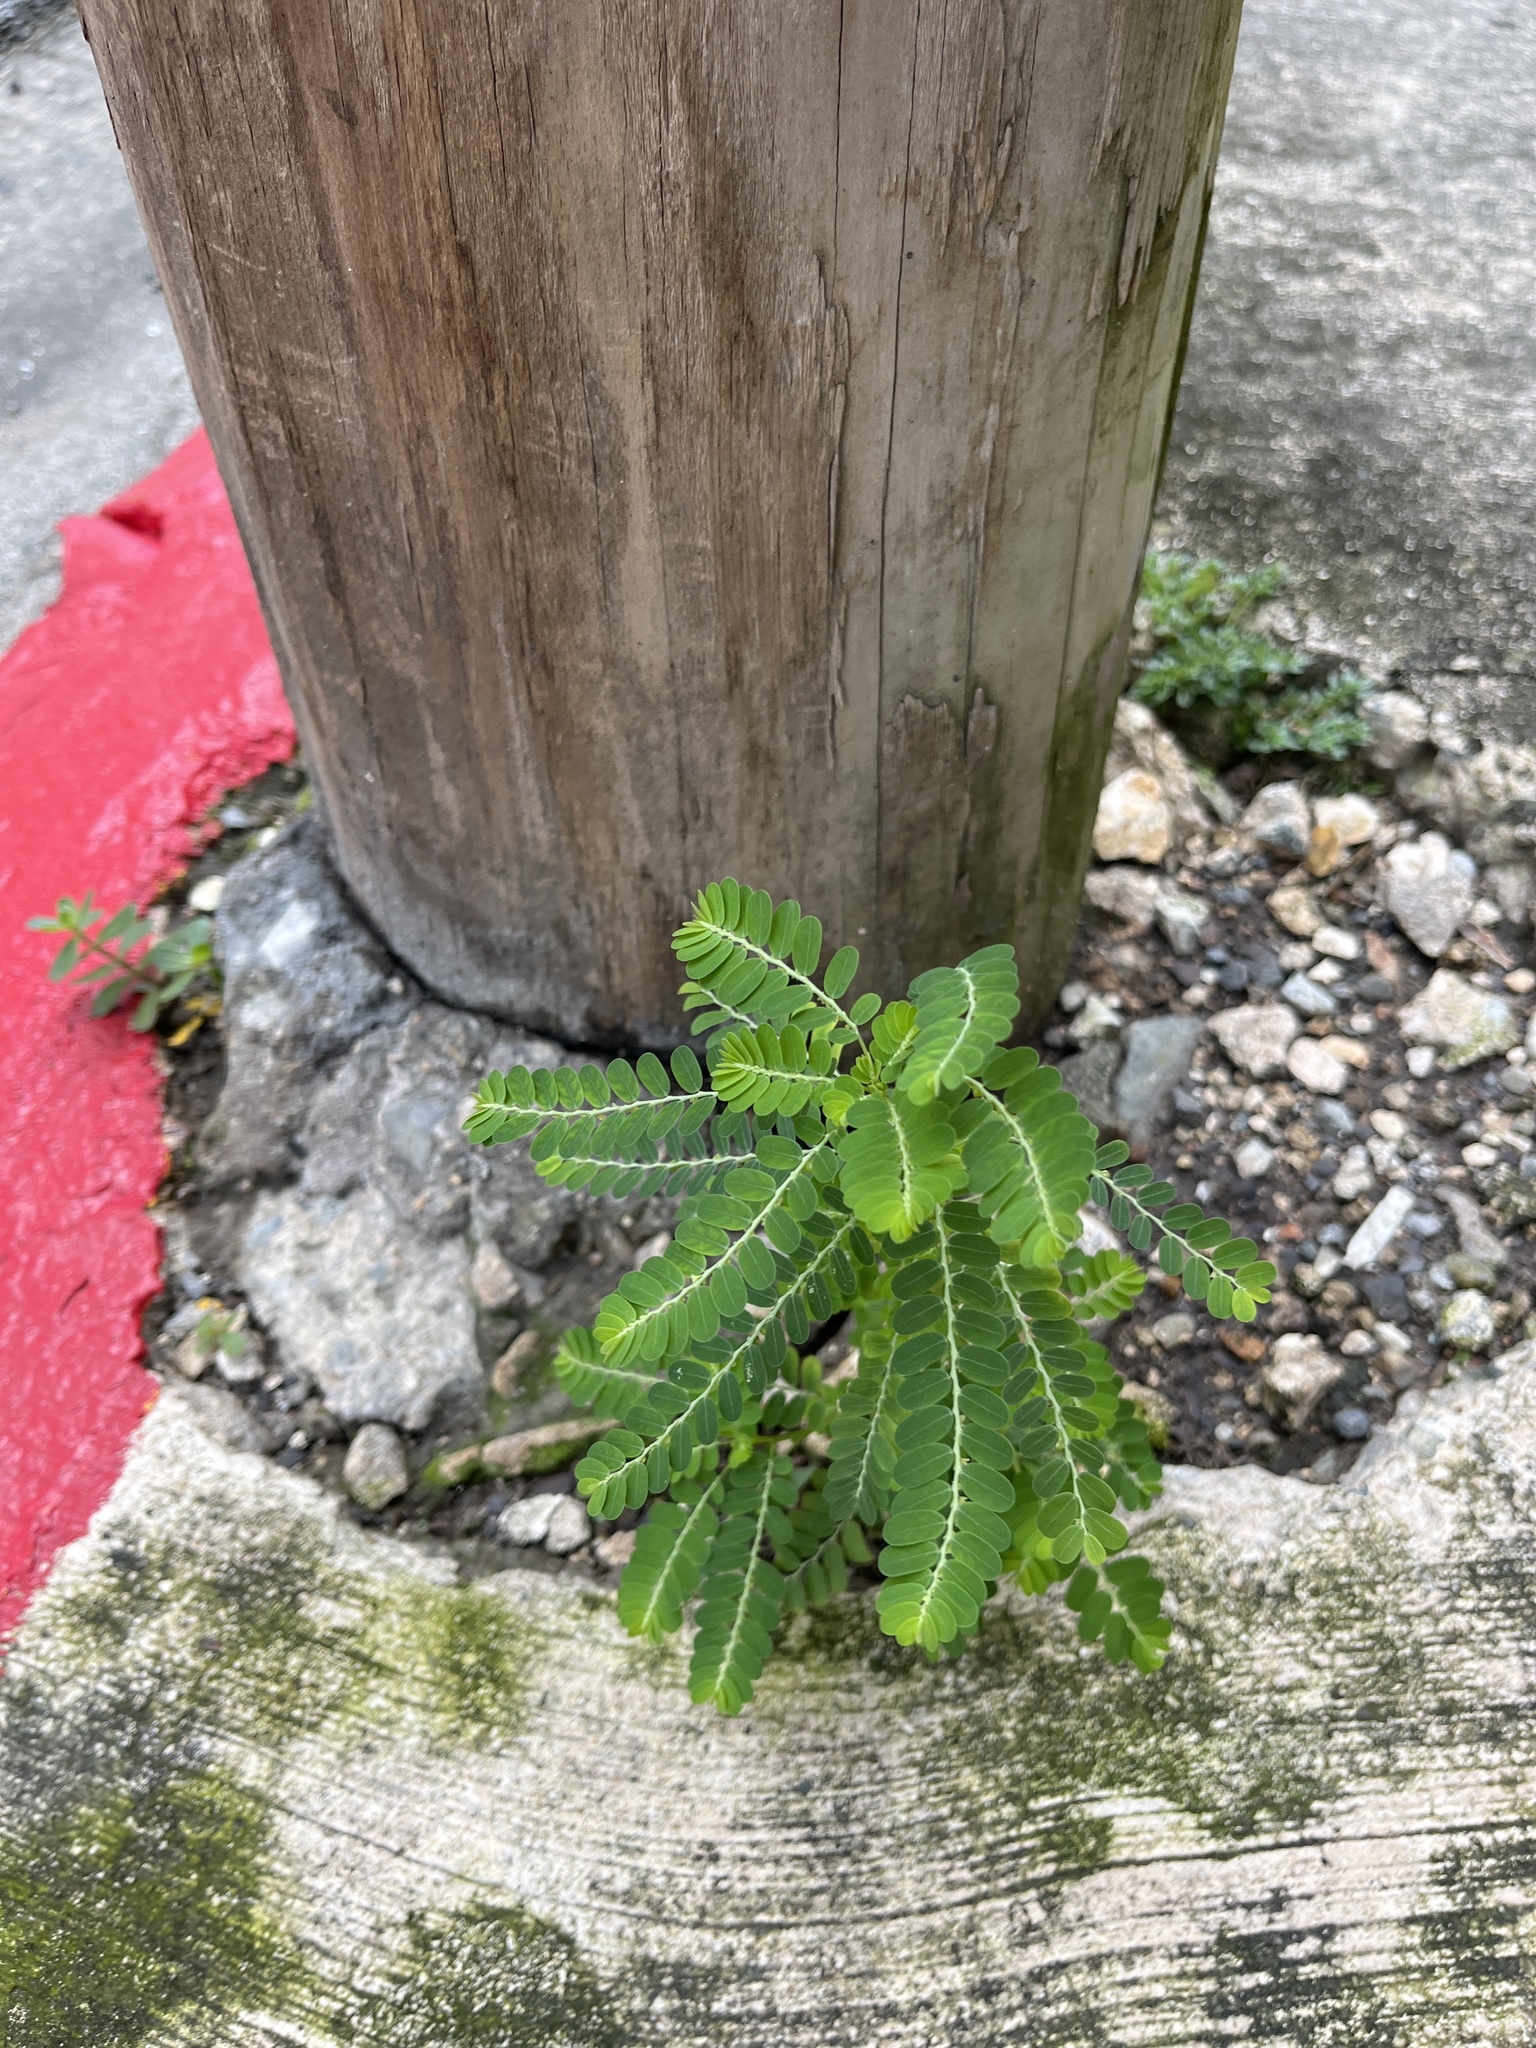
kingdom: Plantae
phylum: Tracheophyta
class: Magnoliopsida
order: Malpighiales
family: Phyllanthaceae
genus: Phyllanthus
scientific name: Phyllanthus amarus
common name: Carry me seed
